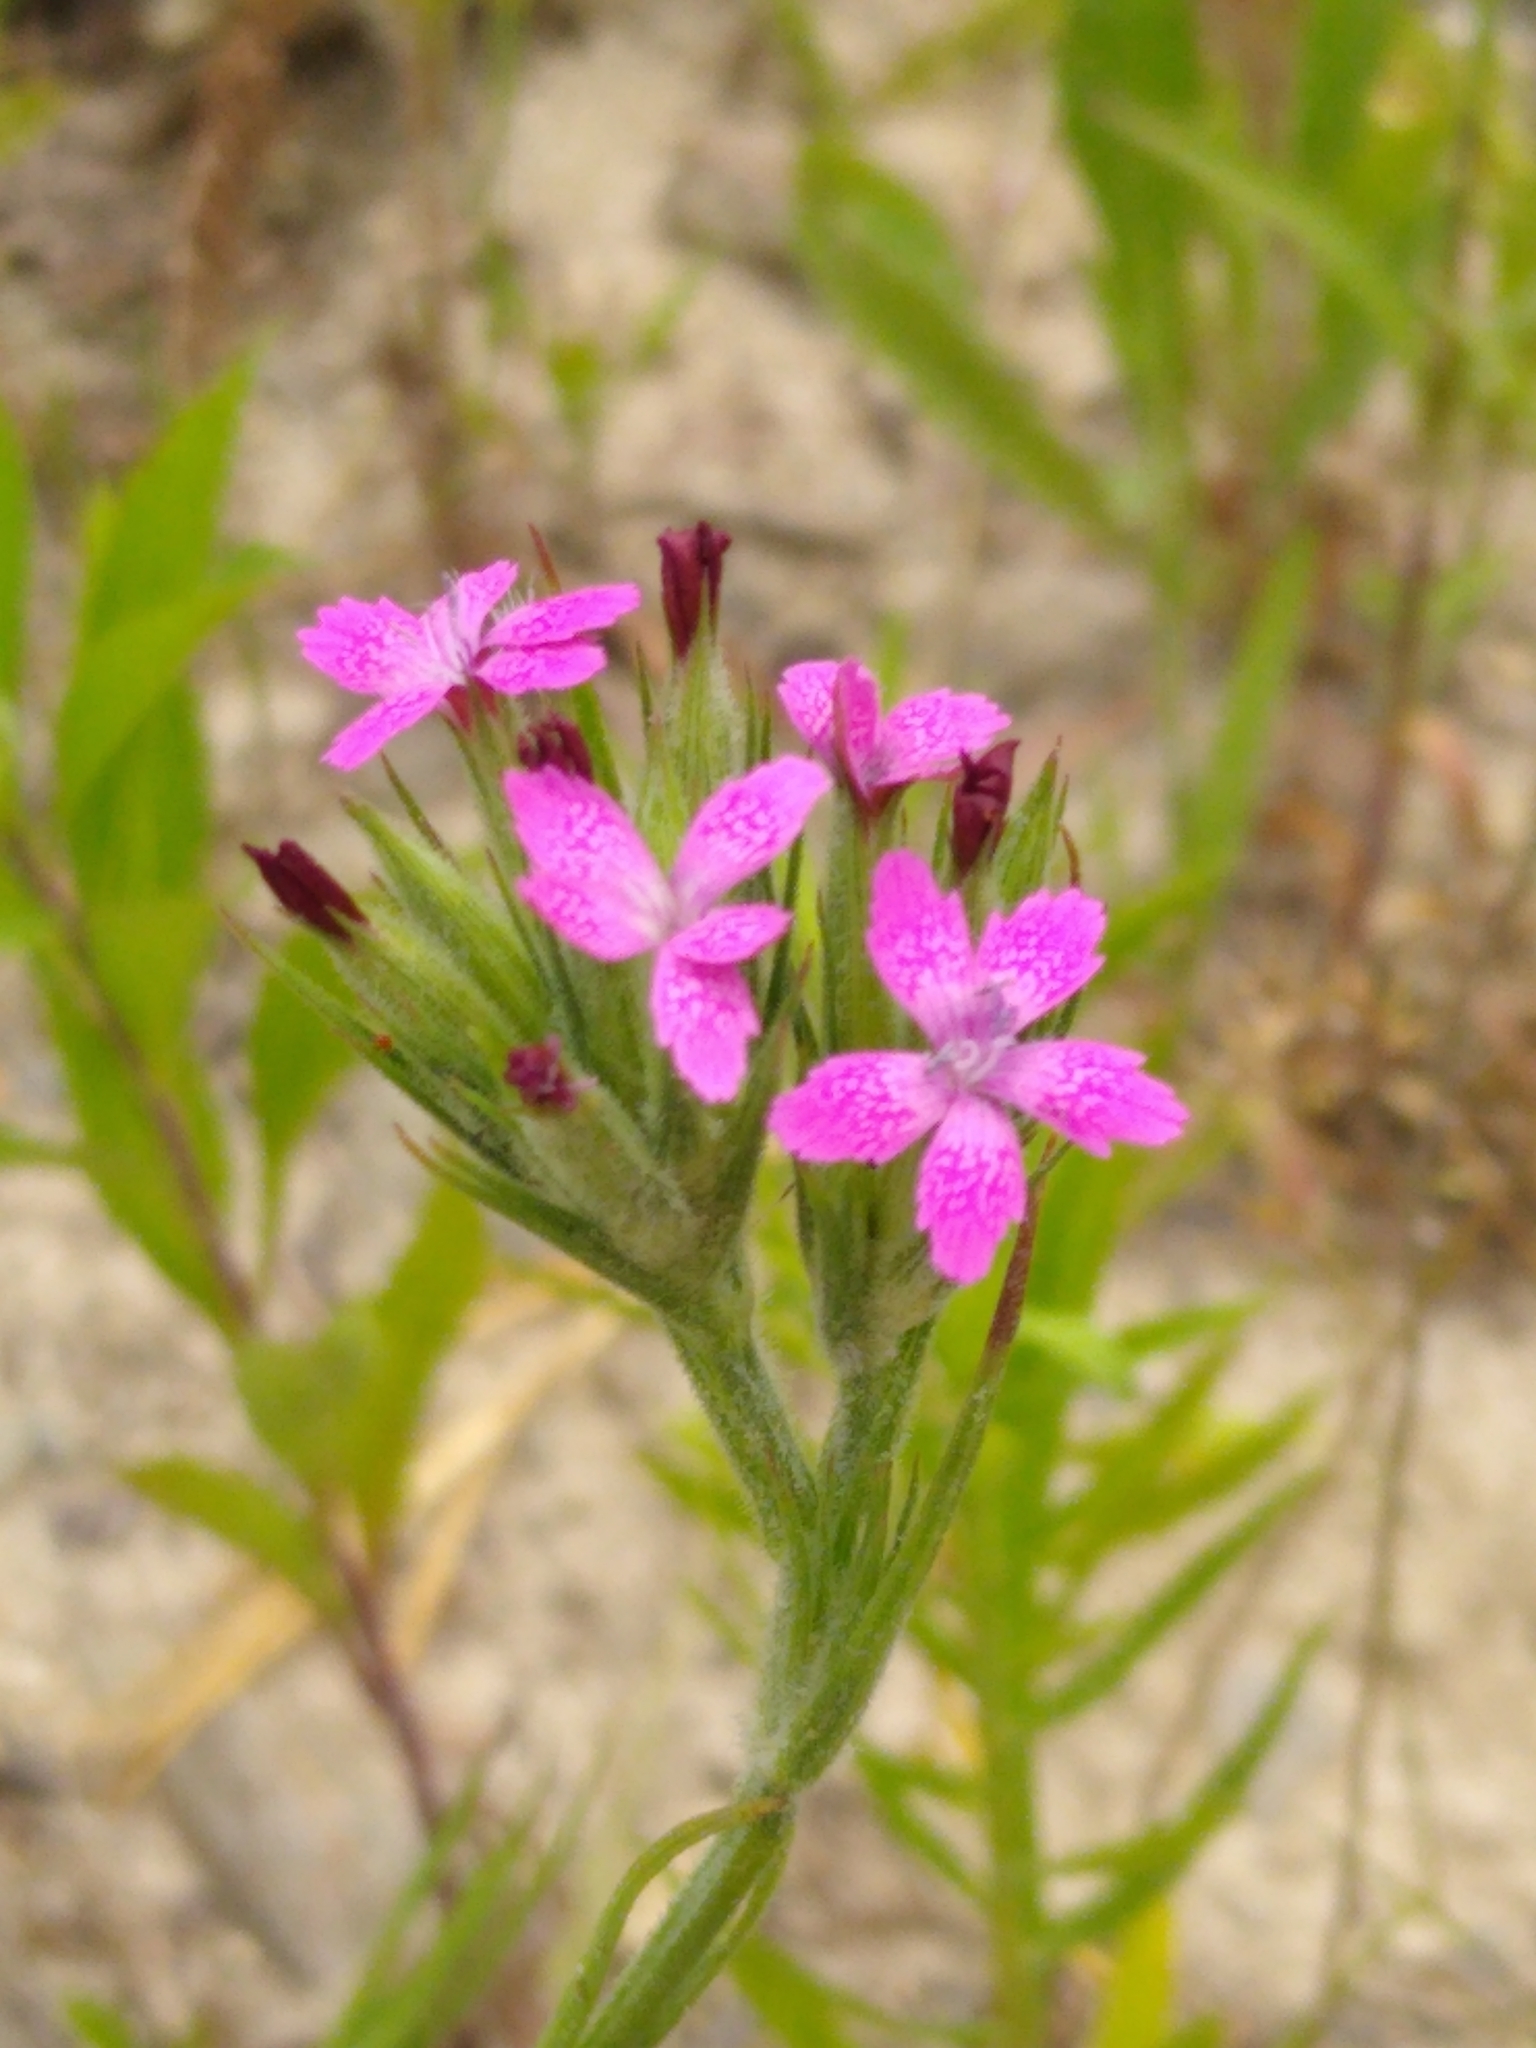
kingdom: Plantae
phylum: Tracheophyta
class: Magnoliopsida
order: Caryophyllales
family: Caryophyllaceae
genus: Dianthus
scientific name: Dianthus armeria
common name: Deptford pink
